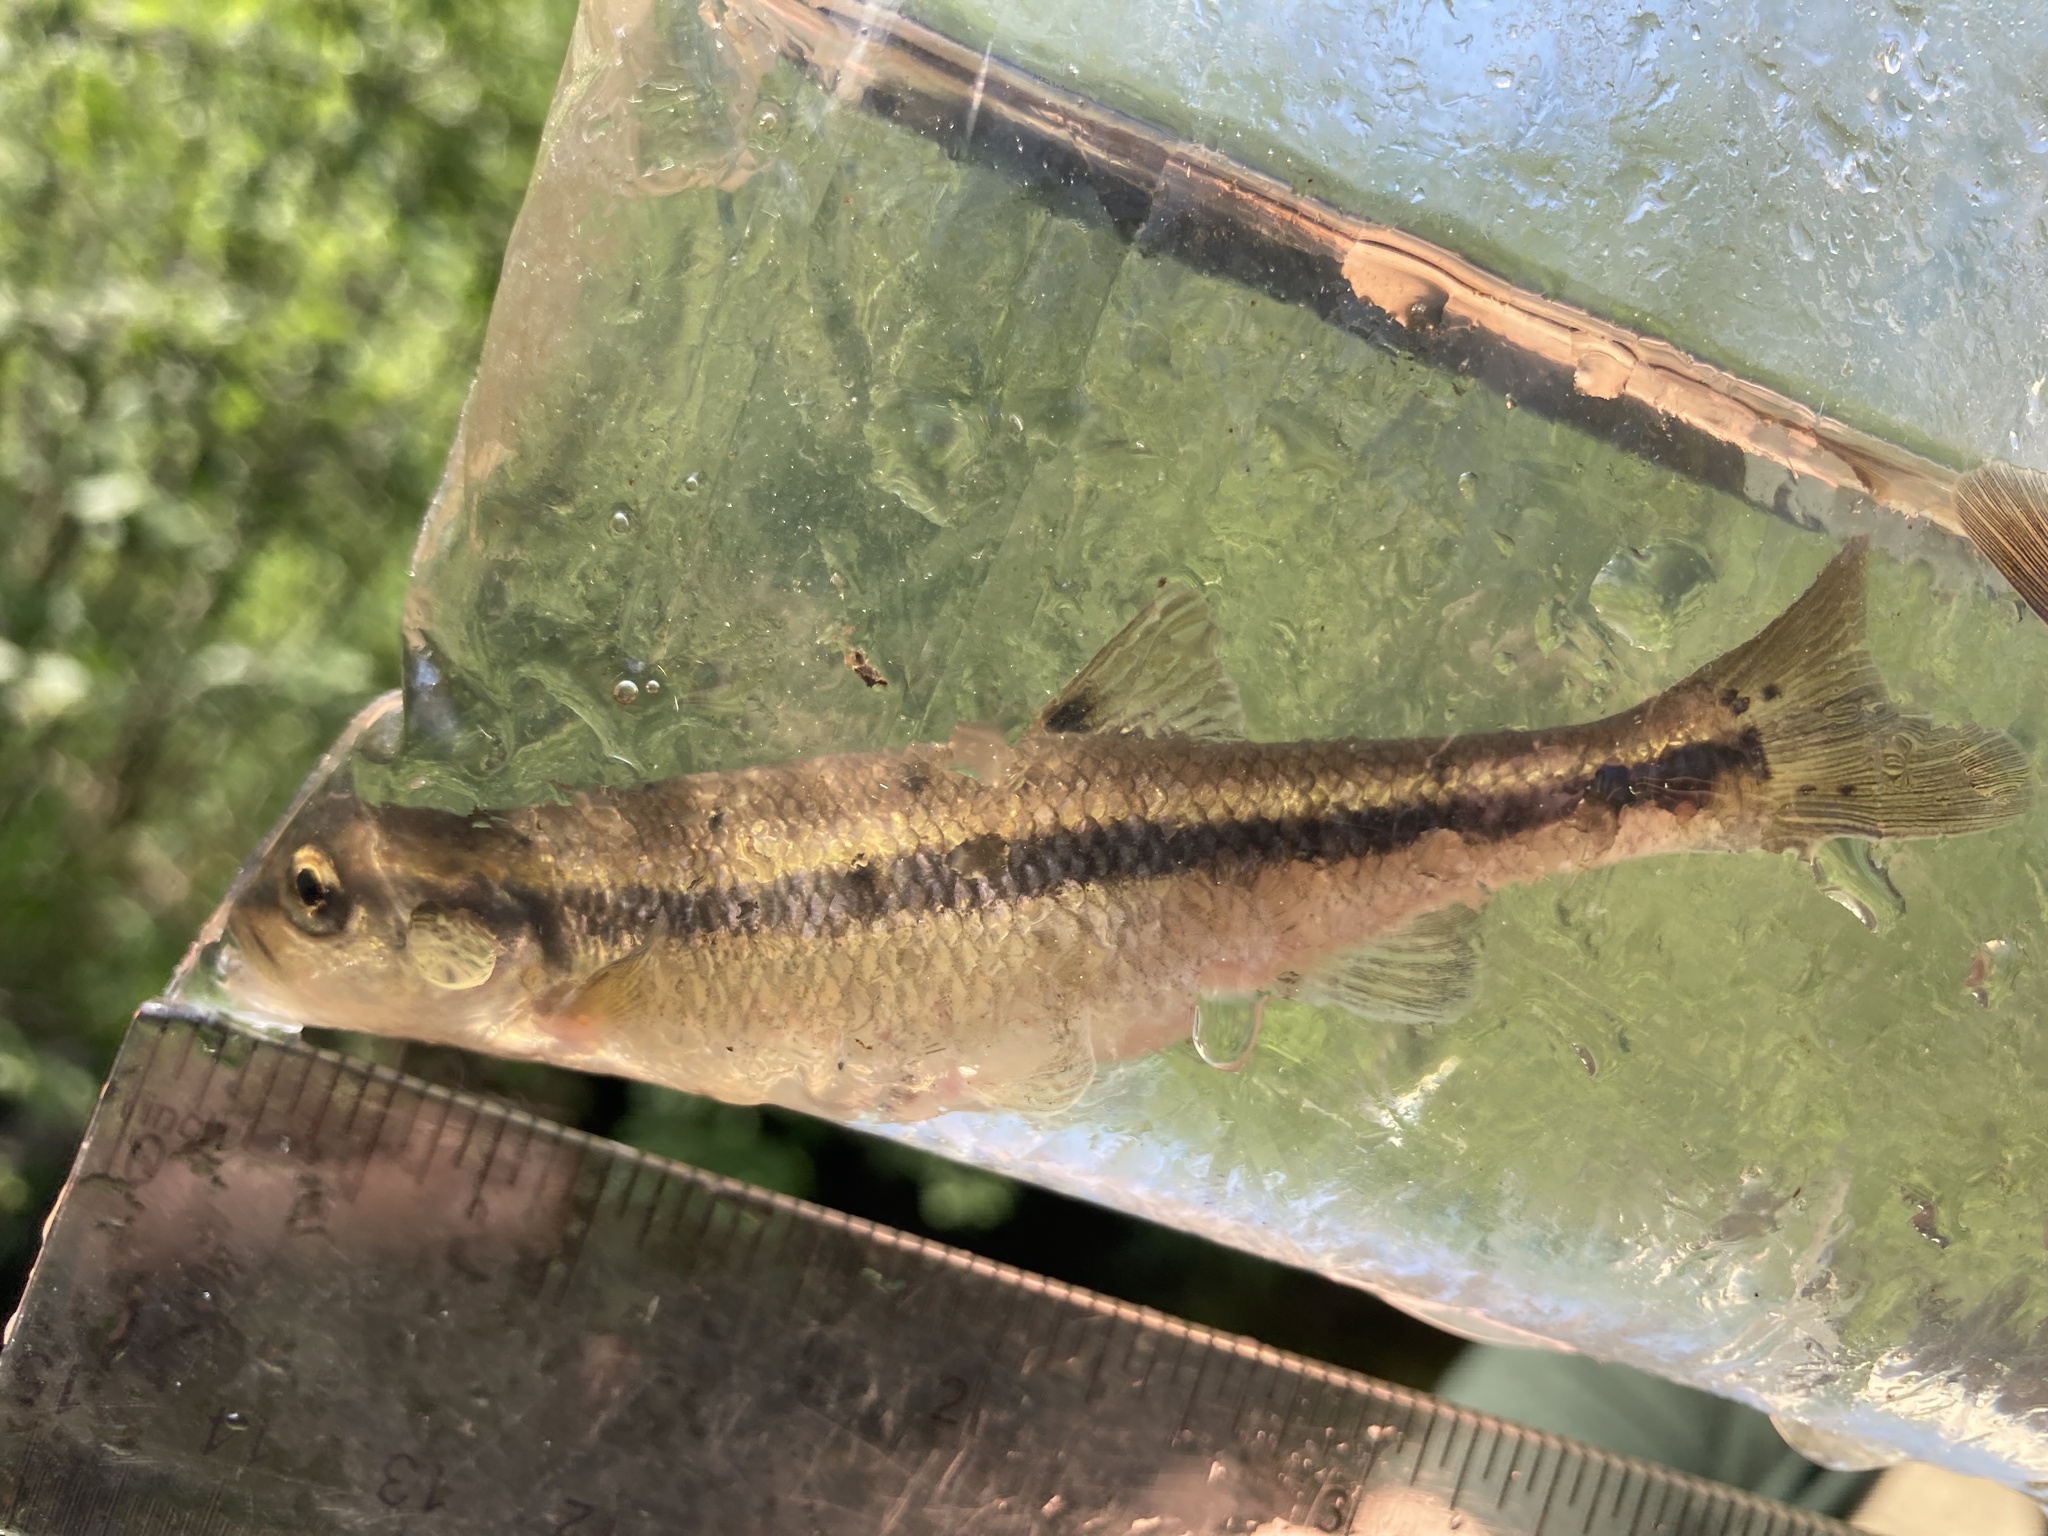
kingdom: Animalia
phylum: Chordata
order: Cypriniformes
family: Cyprinidae
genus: Semotilus
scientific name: Semotilus atromaculatus
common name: Creek chub
